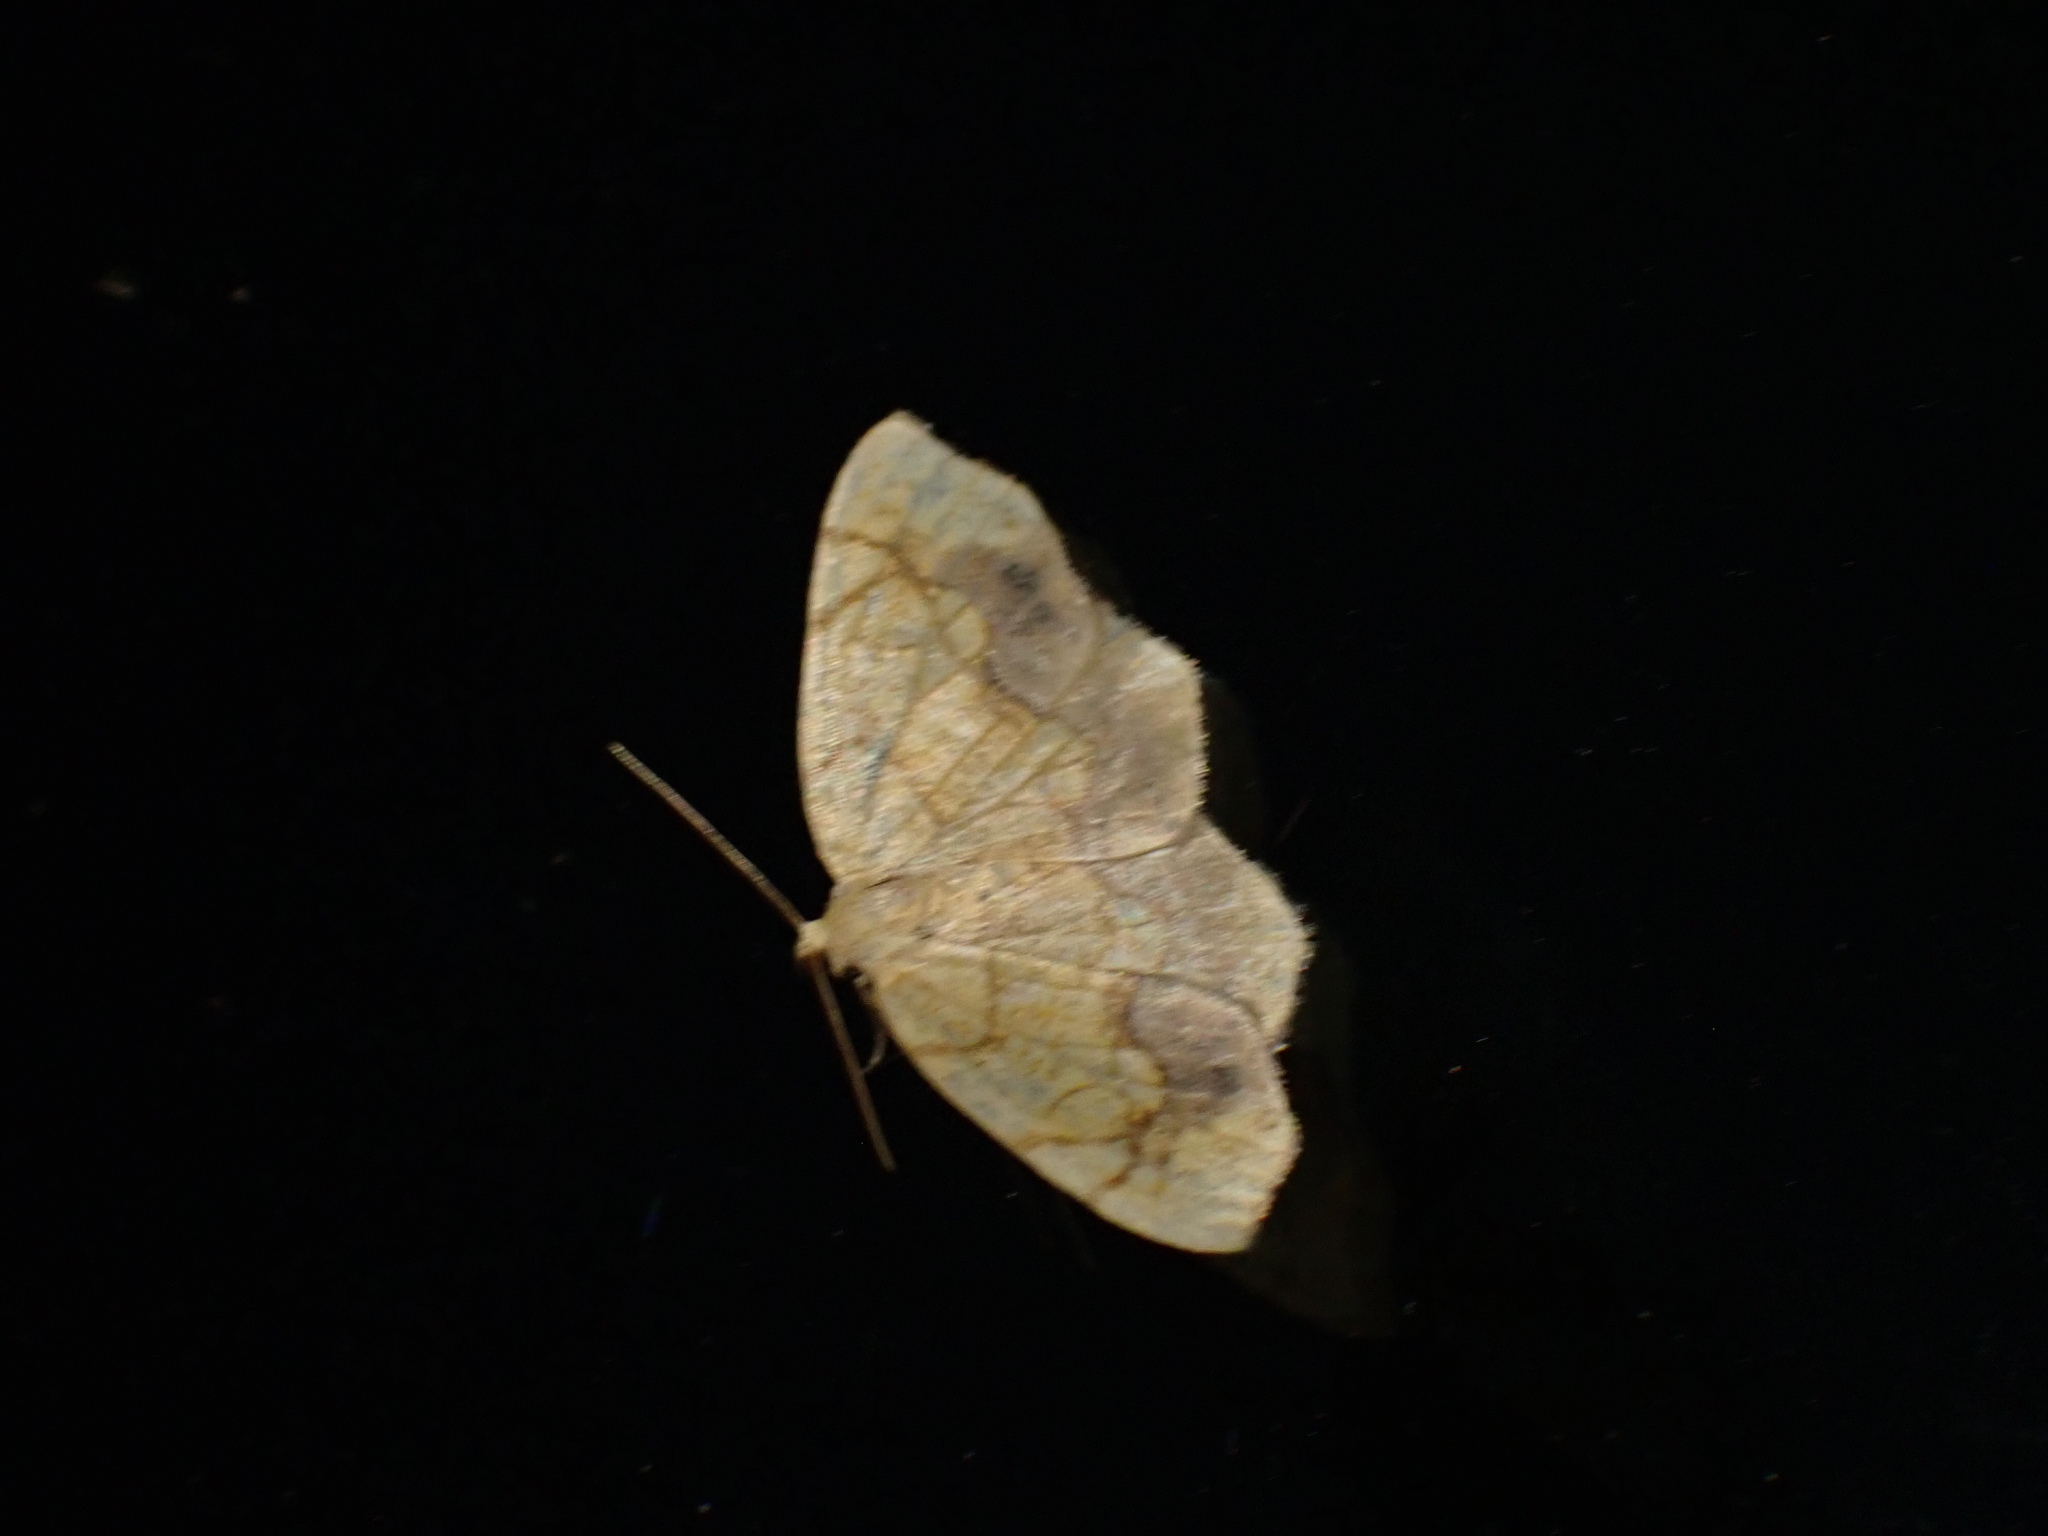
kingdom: Animalia
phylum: Arthropoda
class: Insecta
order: Lepidoptera
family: Geometridae
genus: Nematocampa
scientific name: Nematocampa resistaria
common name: Horned spanworm moth
